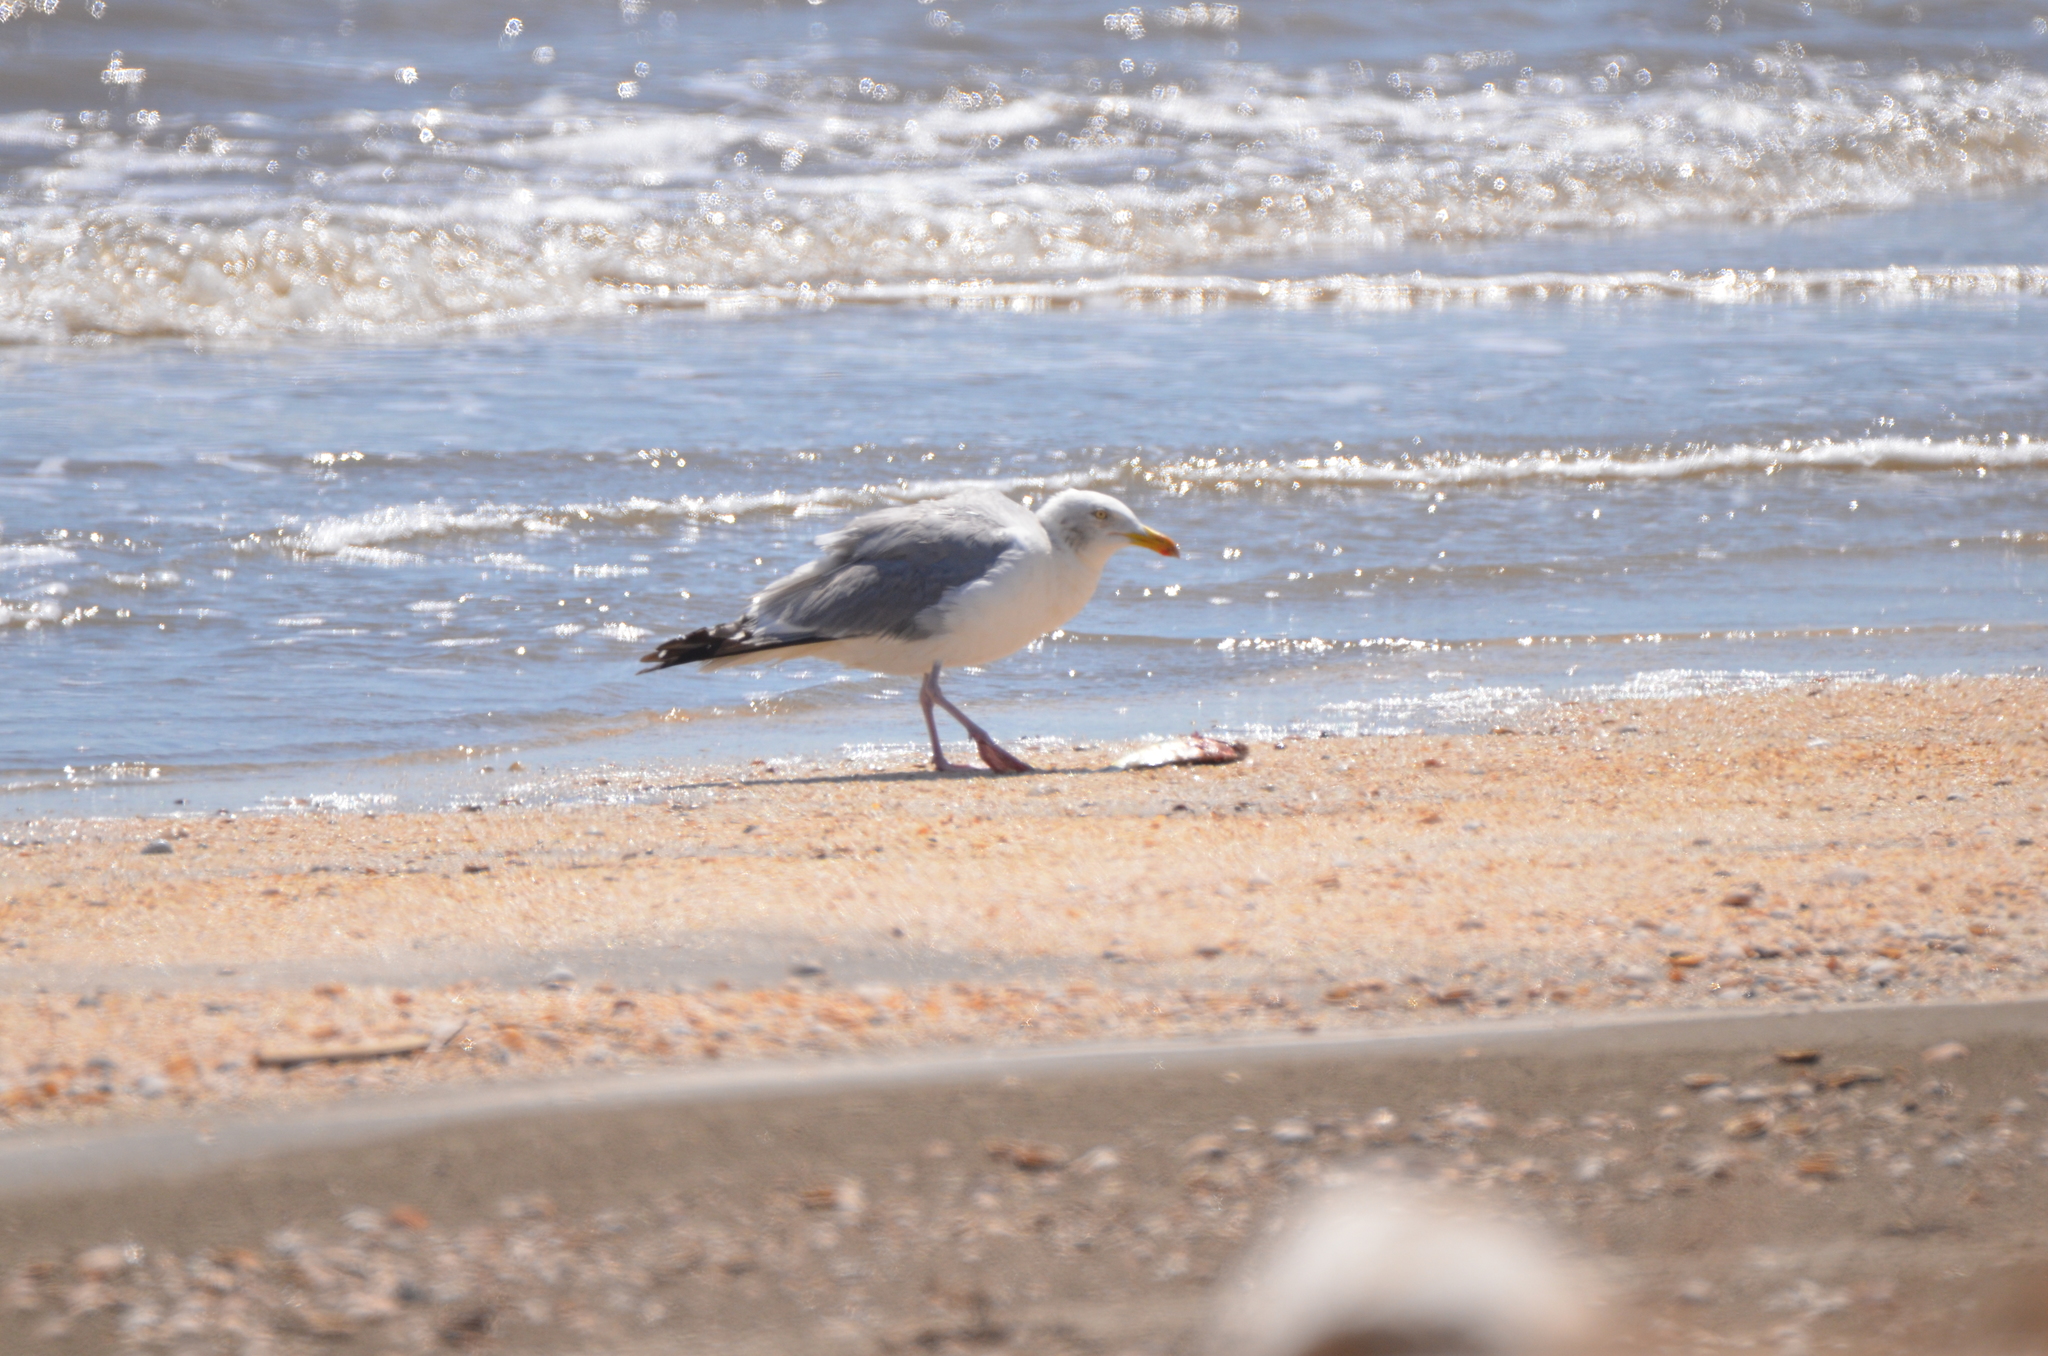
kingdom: Animalia
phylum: Chordata
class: Aves
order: Charadriiformes
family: Laridae
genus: Larus
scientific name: Larus argentatus
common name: Herring gull
